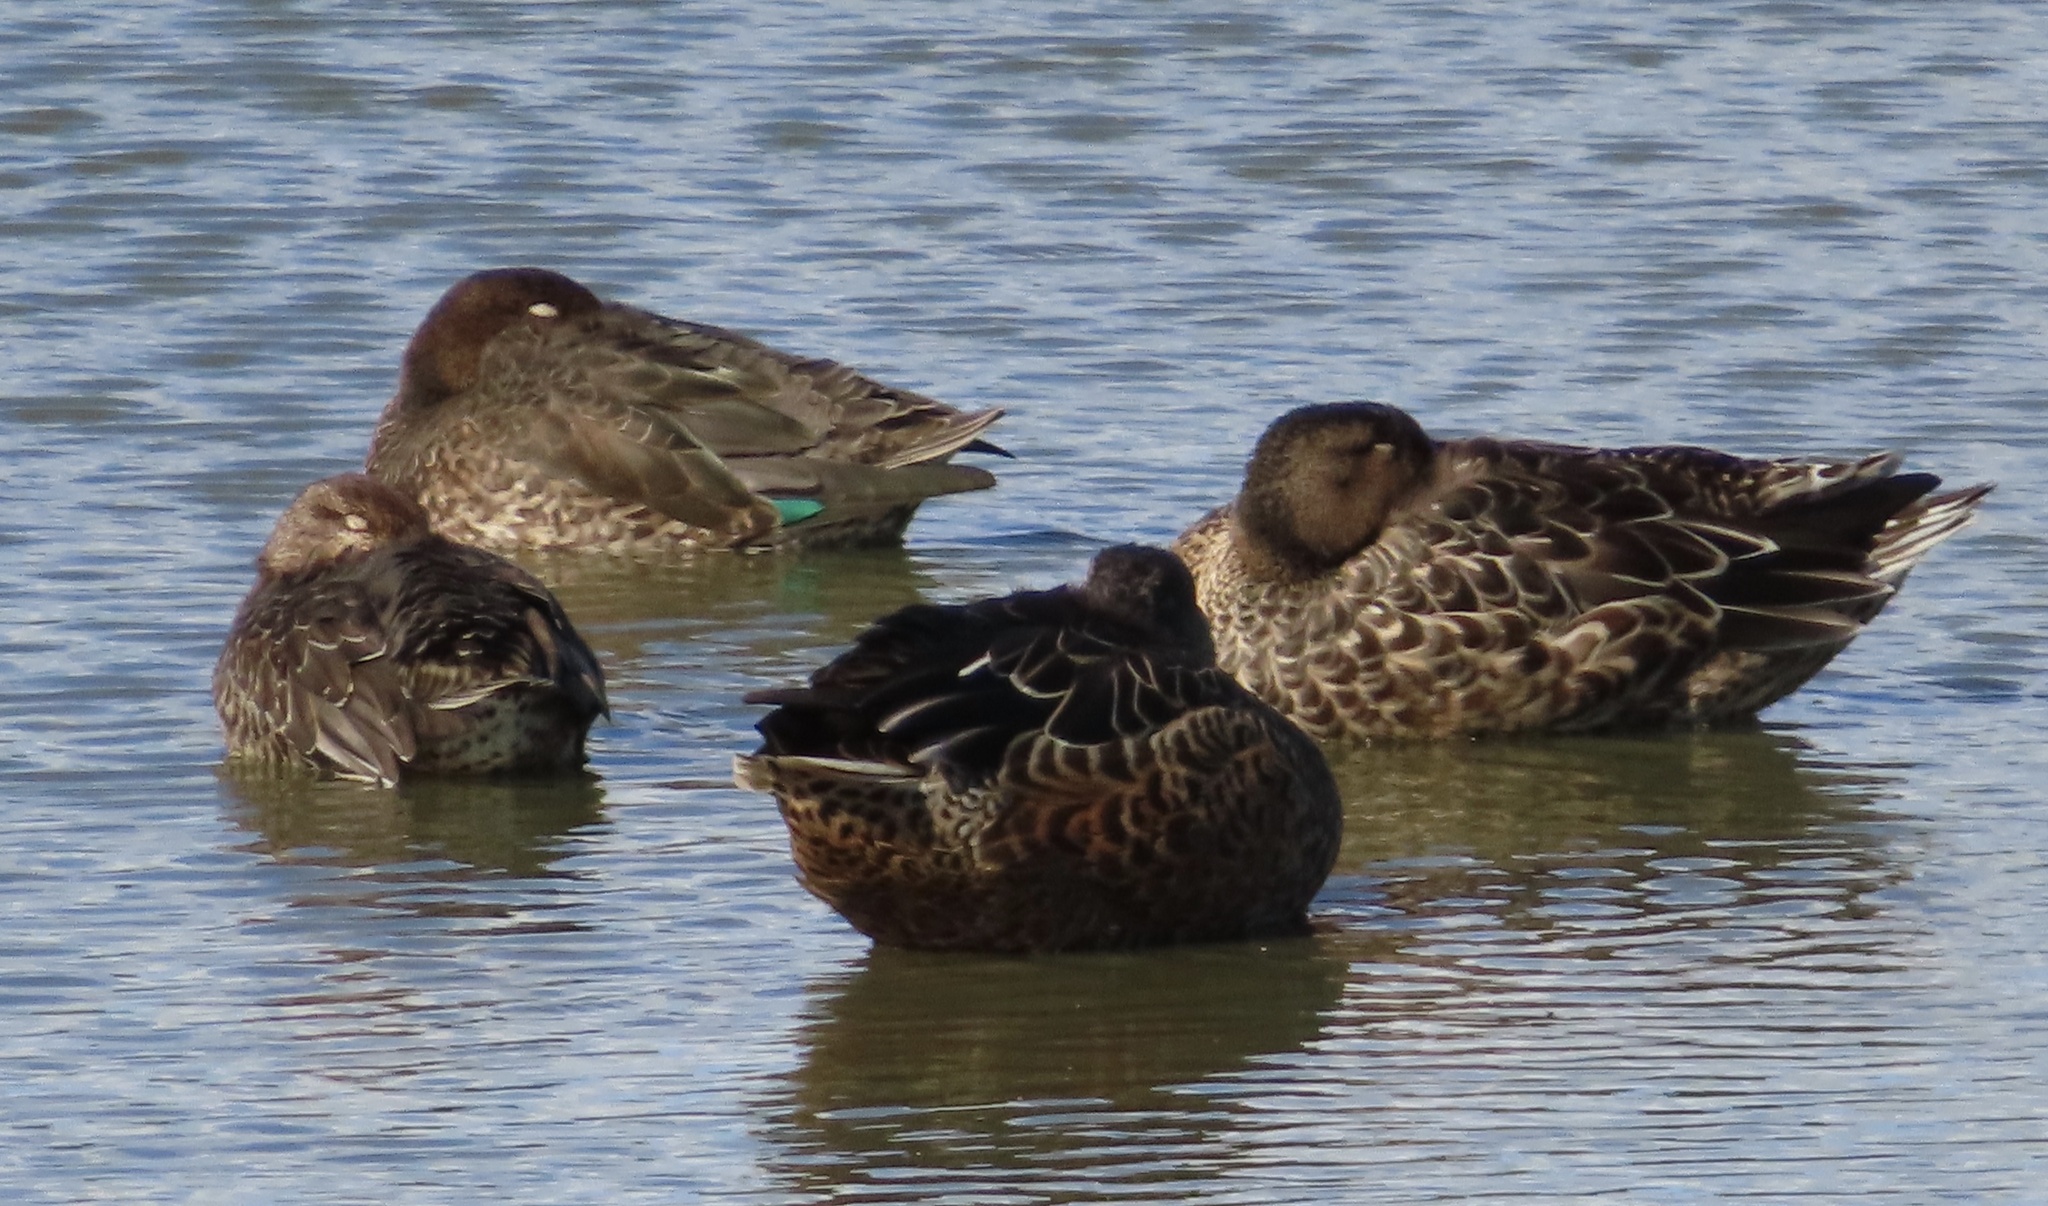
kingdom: Animalia
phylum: Chordata
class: Aves
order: Anseriformes
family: Anatidae
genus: Anas
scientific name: Anas crecca
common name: Eurasian teal
